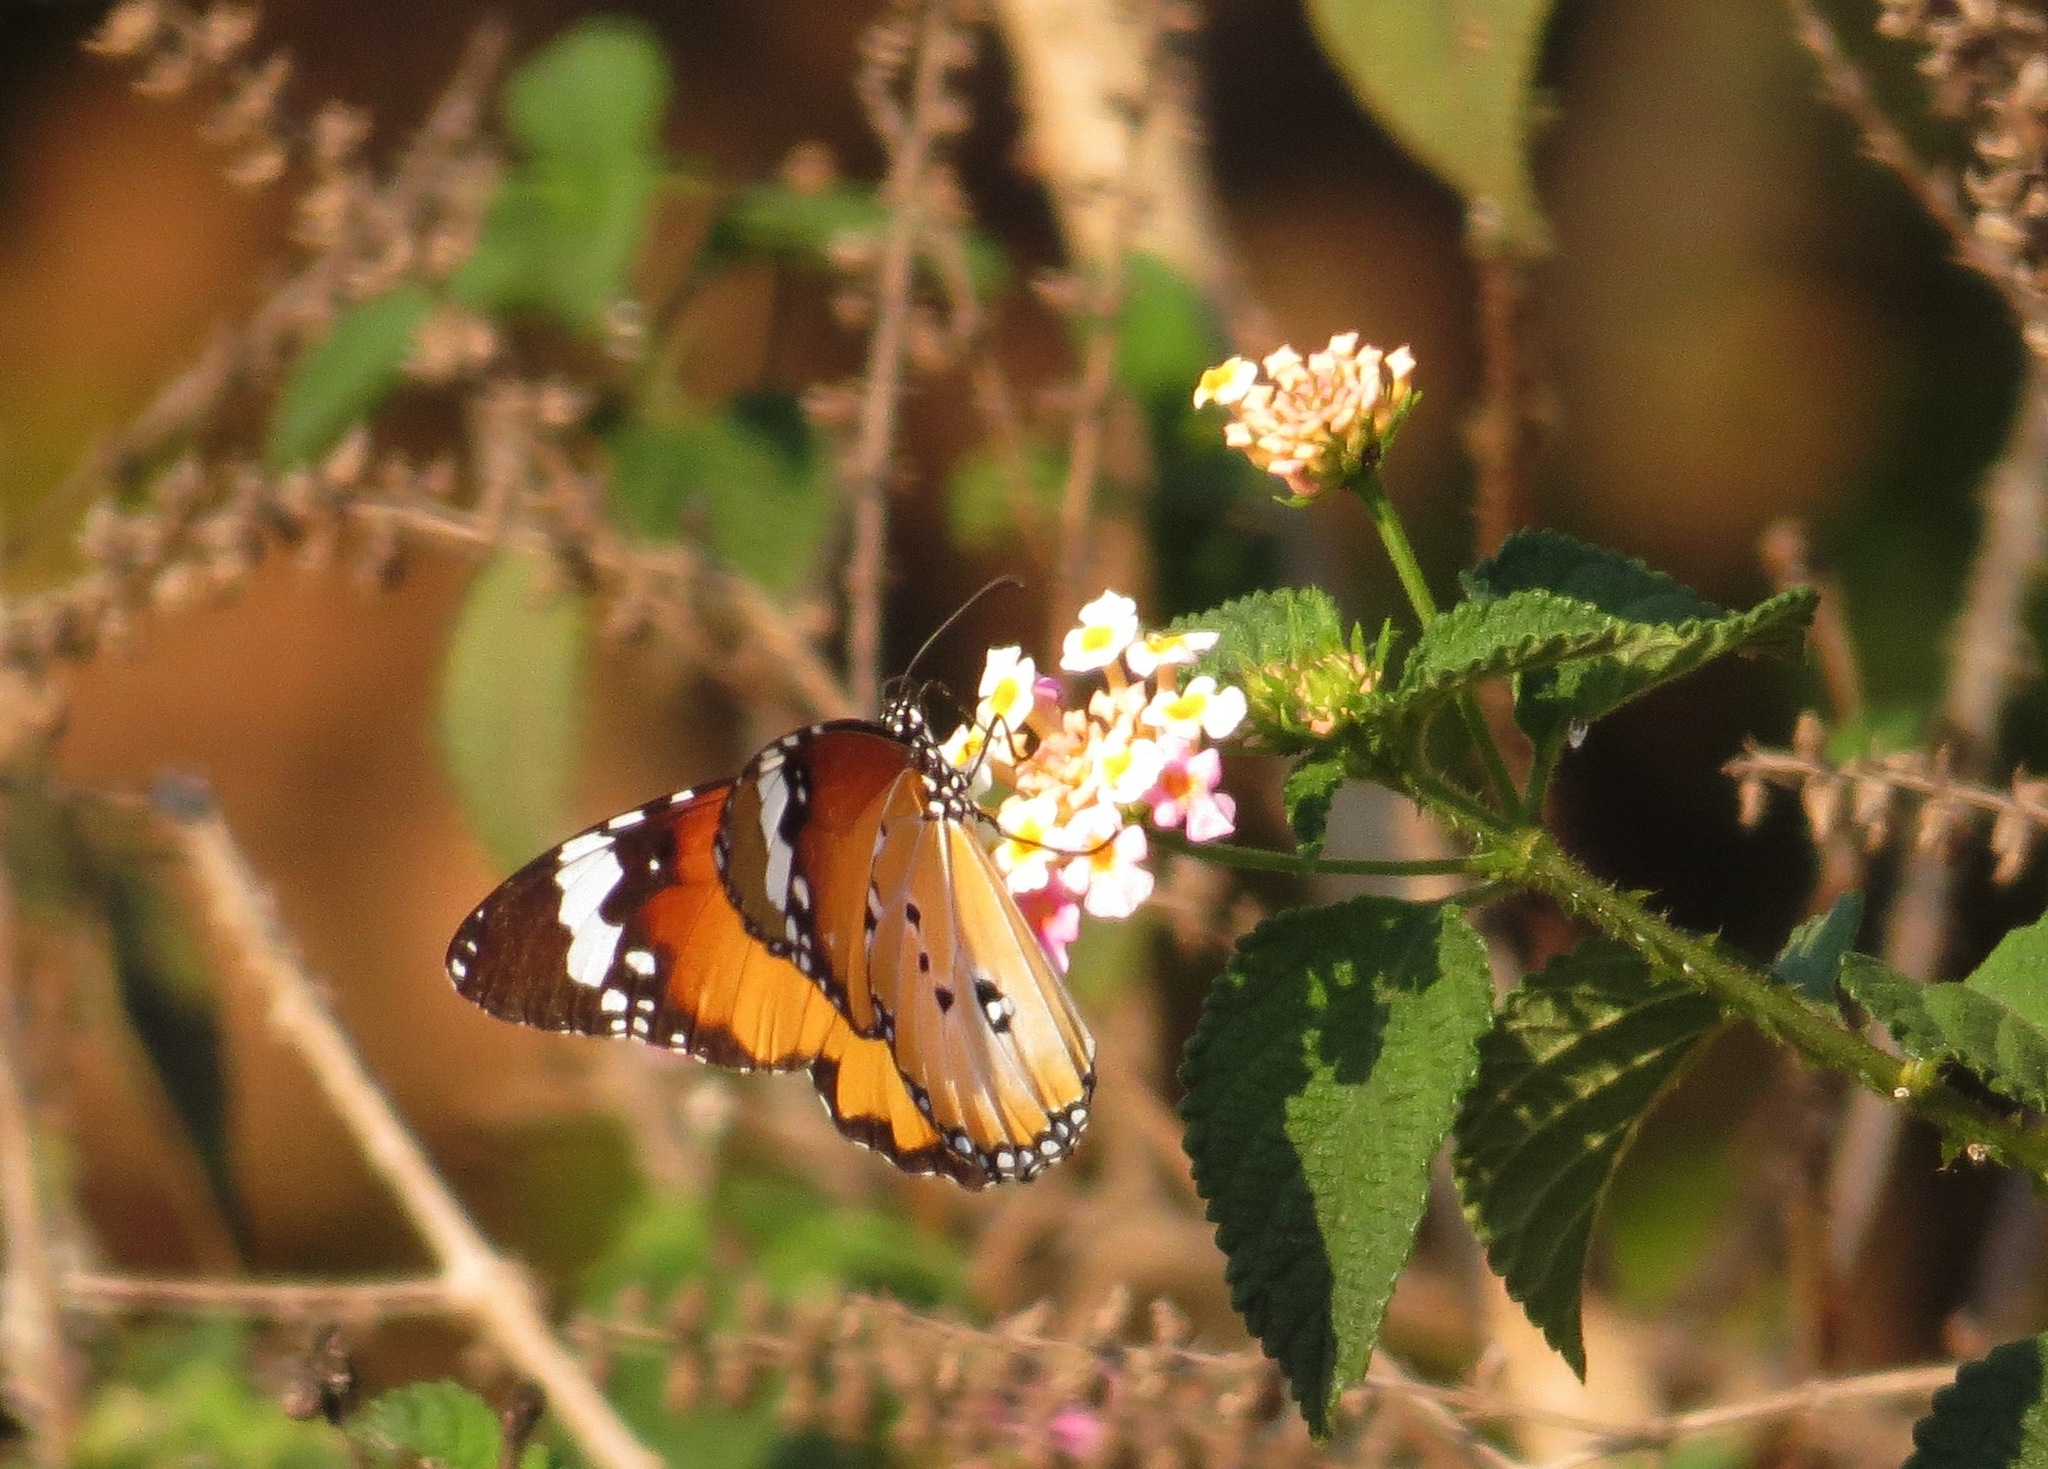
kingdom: Animalia
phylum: Arthropoda
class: Insecta
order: Lepidoptera
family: Nymphalidae
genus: Danaus
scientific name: Danaus chrysippus
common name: Plain tiger
